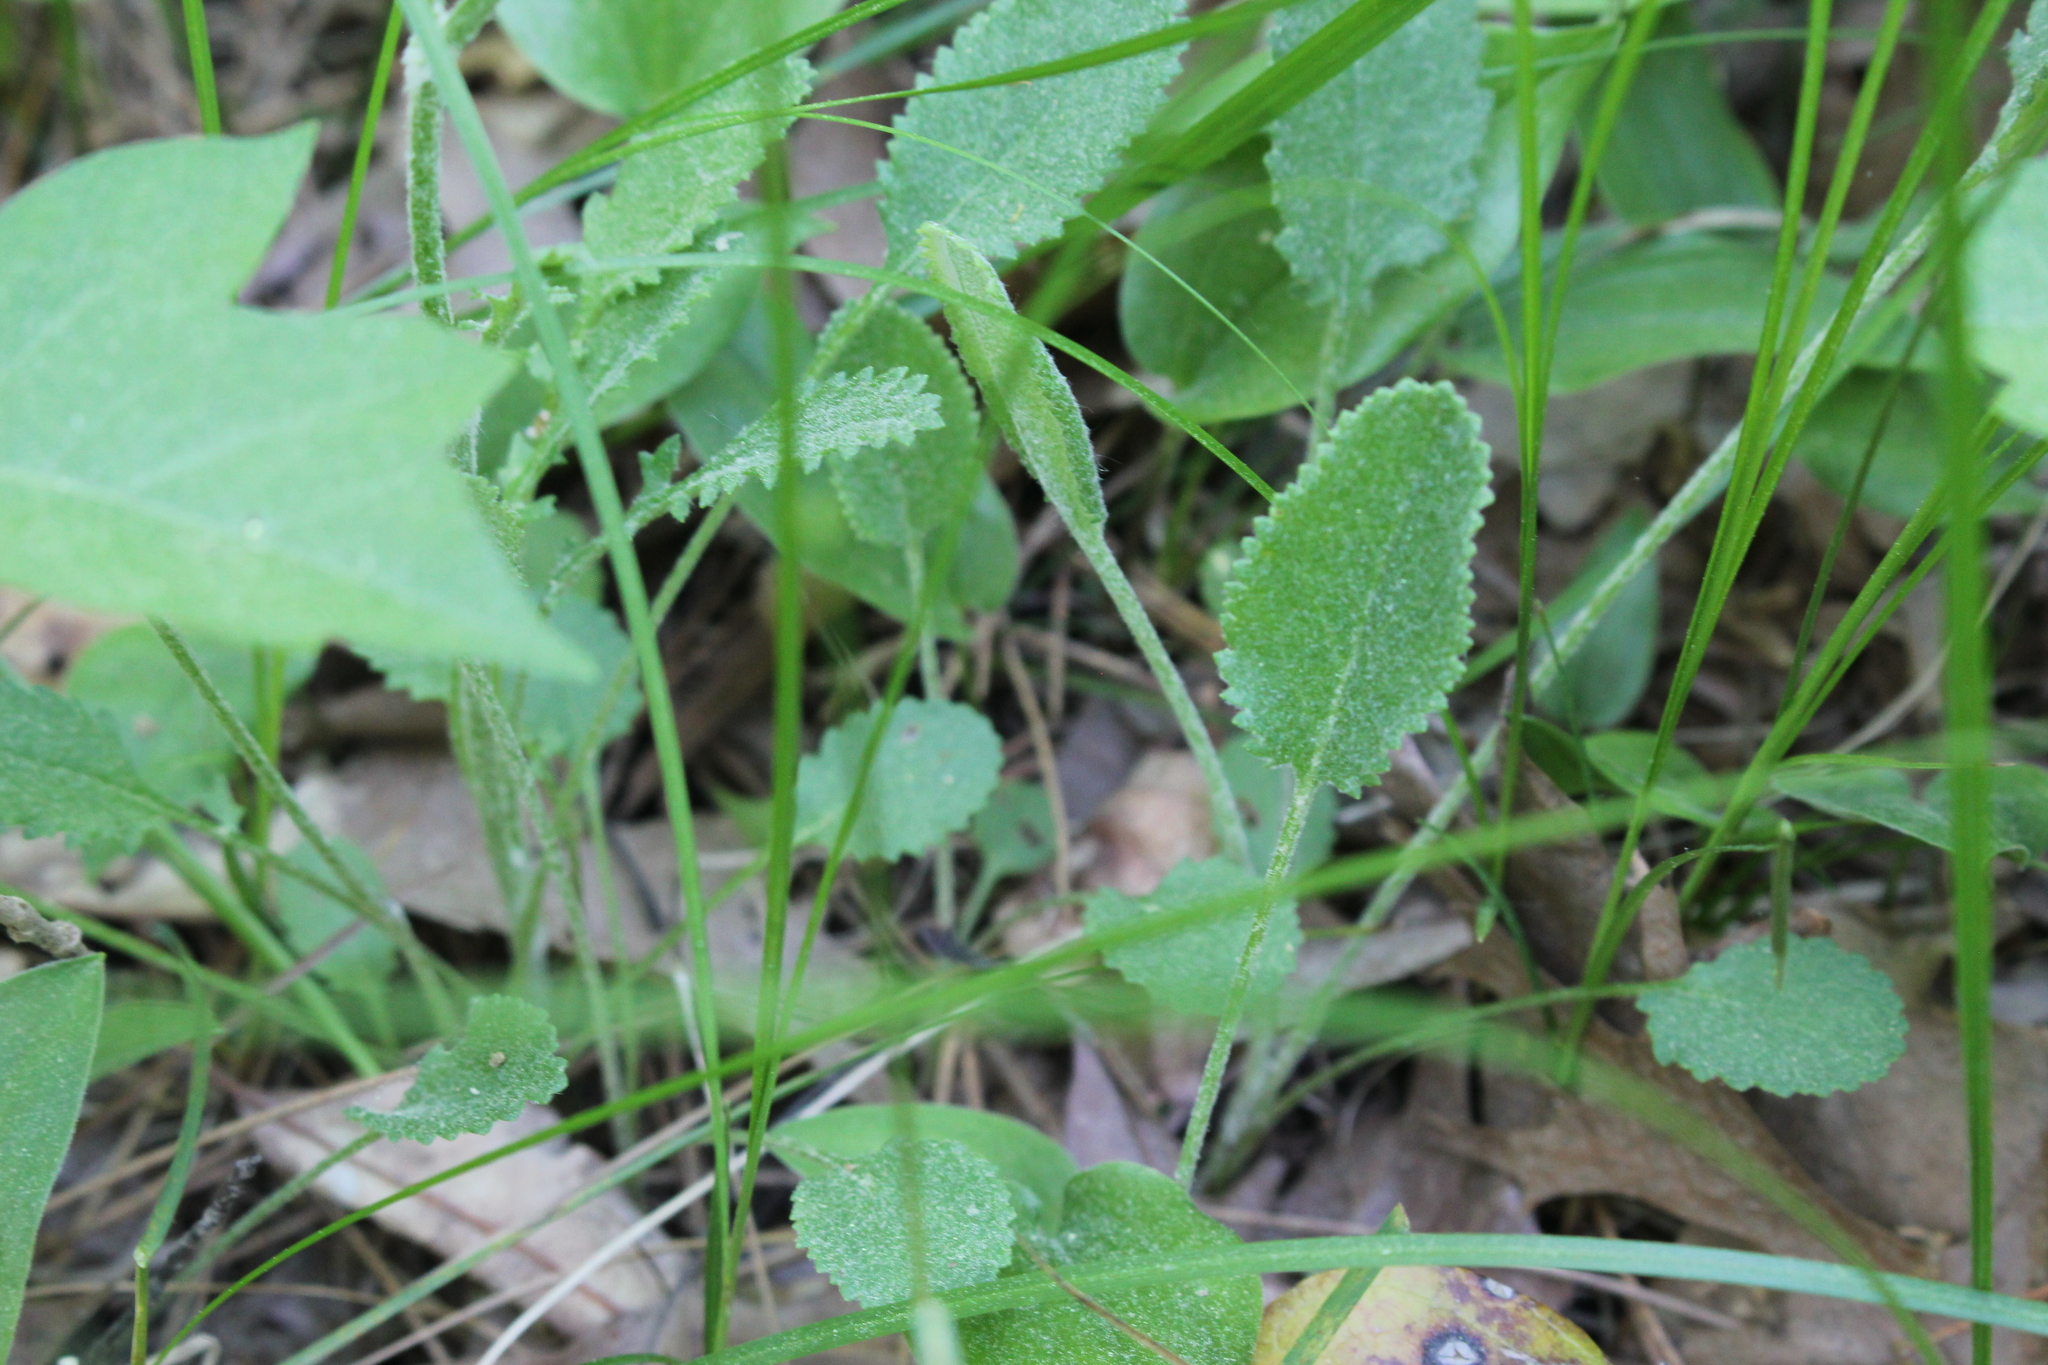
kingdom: Plantae
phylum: Tracheophyta
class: Magnoliopsida
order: Asterales
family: Asteraceae
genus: Packera
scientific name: Packera paupercula
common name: Balsam groundsel
